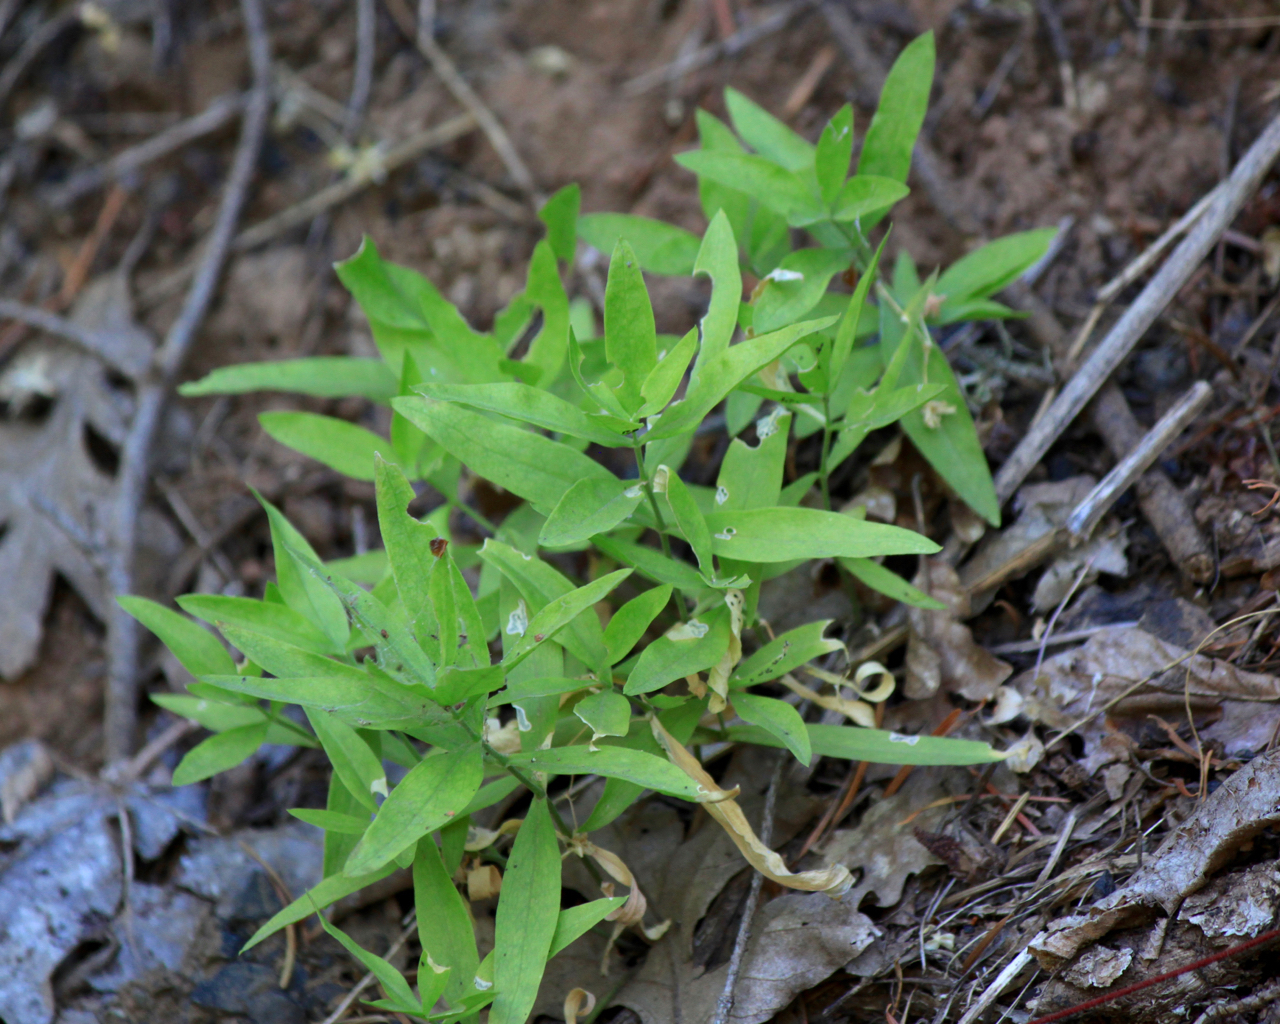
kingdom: Plantae
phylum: Tracheophyta
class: Magnoliopsida
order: Caryophyllales
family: Caryophyllaceae
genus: Moehringia
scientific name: Moehringia macrophylla
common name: Big-leaf sandwort
